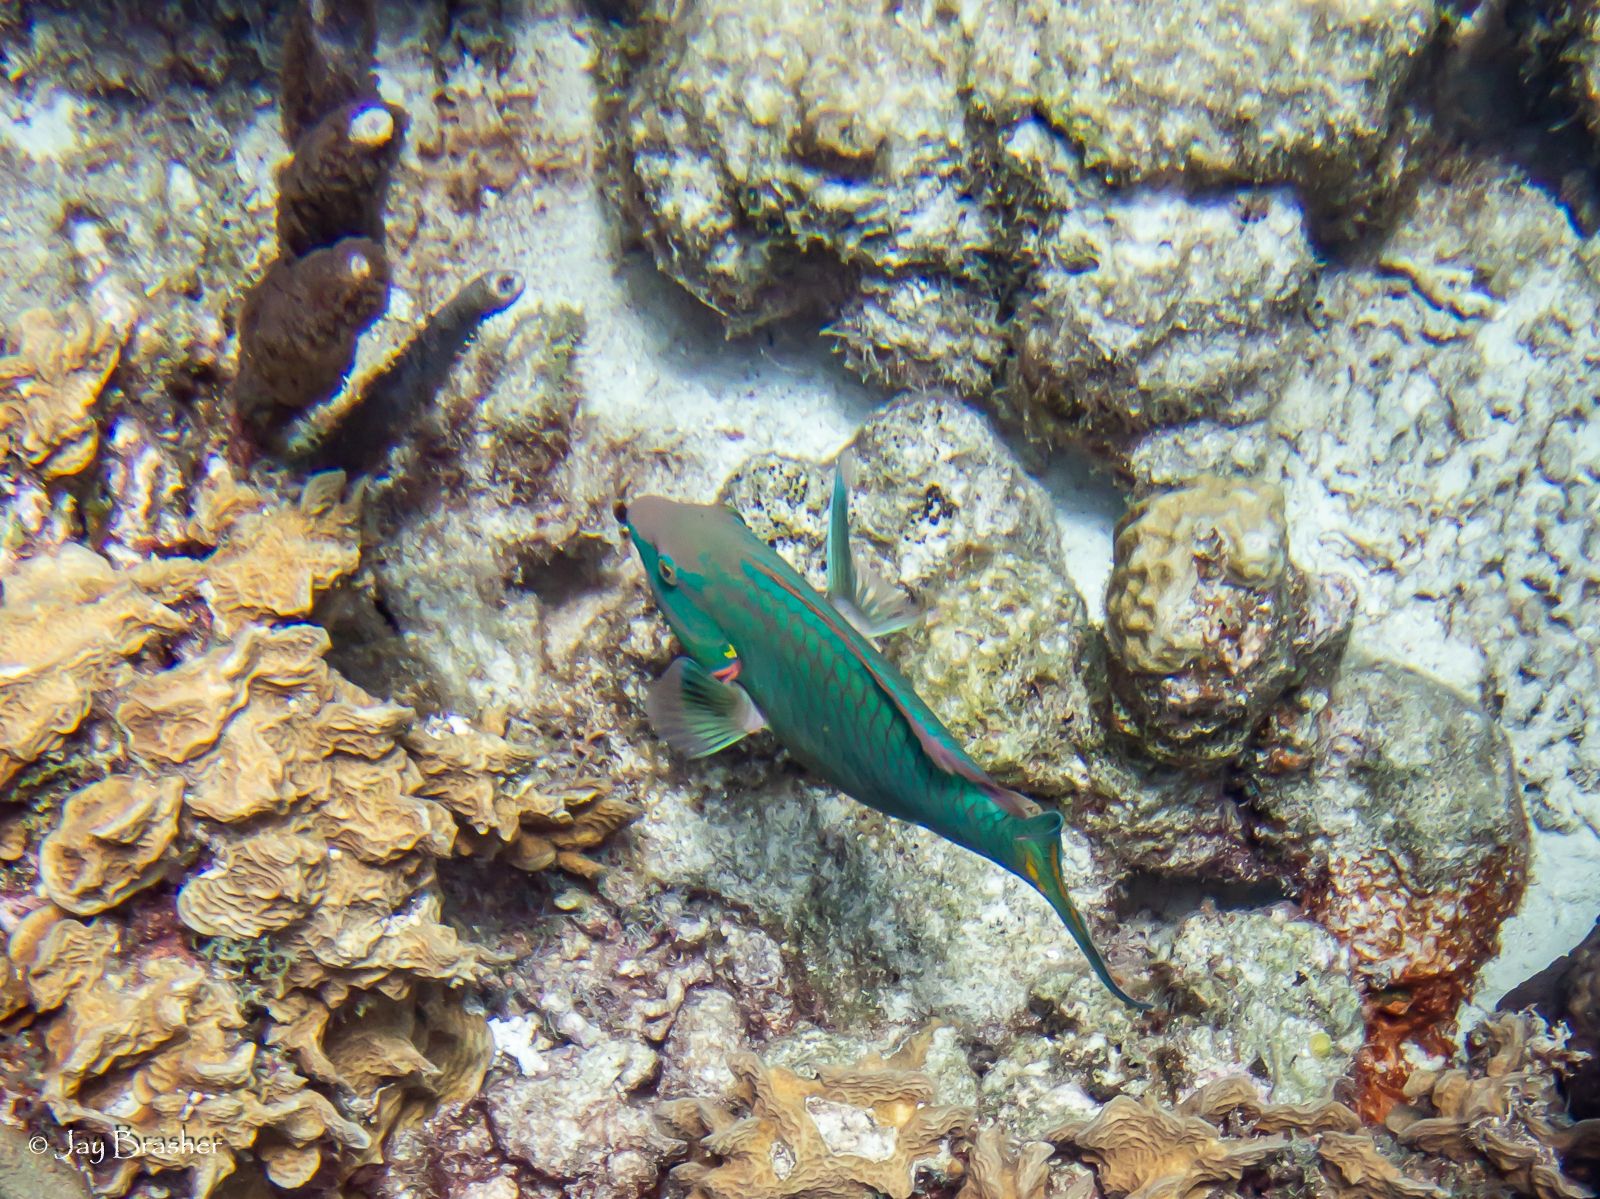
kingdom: Animalia
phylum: Chordata
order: Perciformes
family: Scaridae
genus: Sparisoma
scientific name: Sparisoma viride
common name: Stoplight parrotfish
